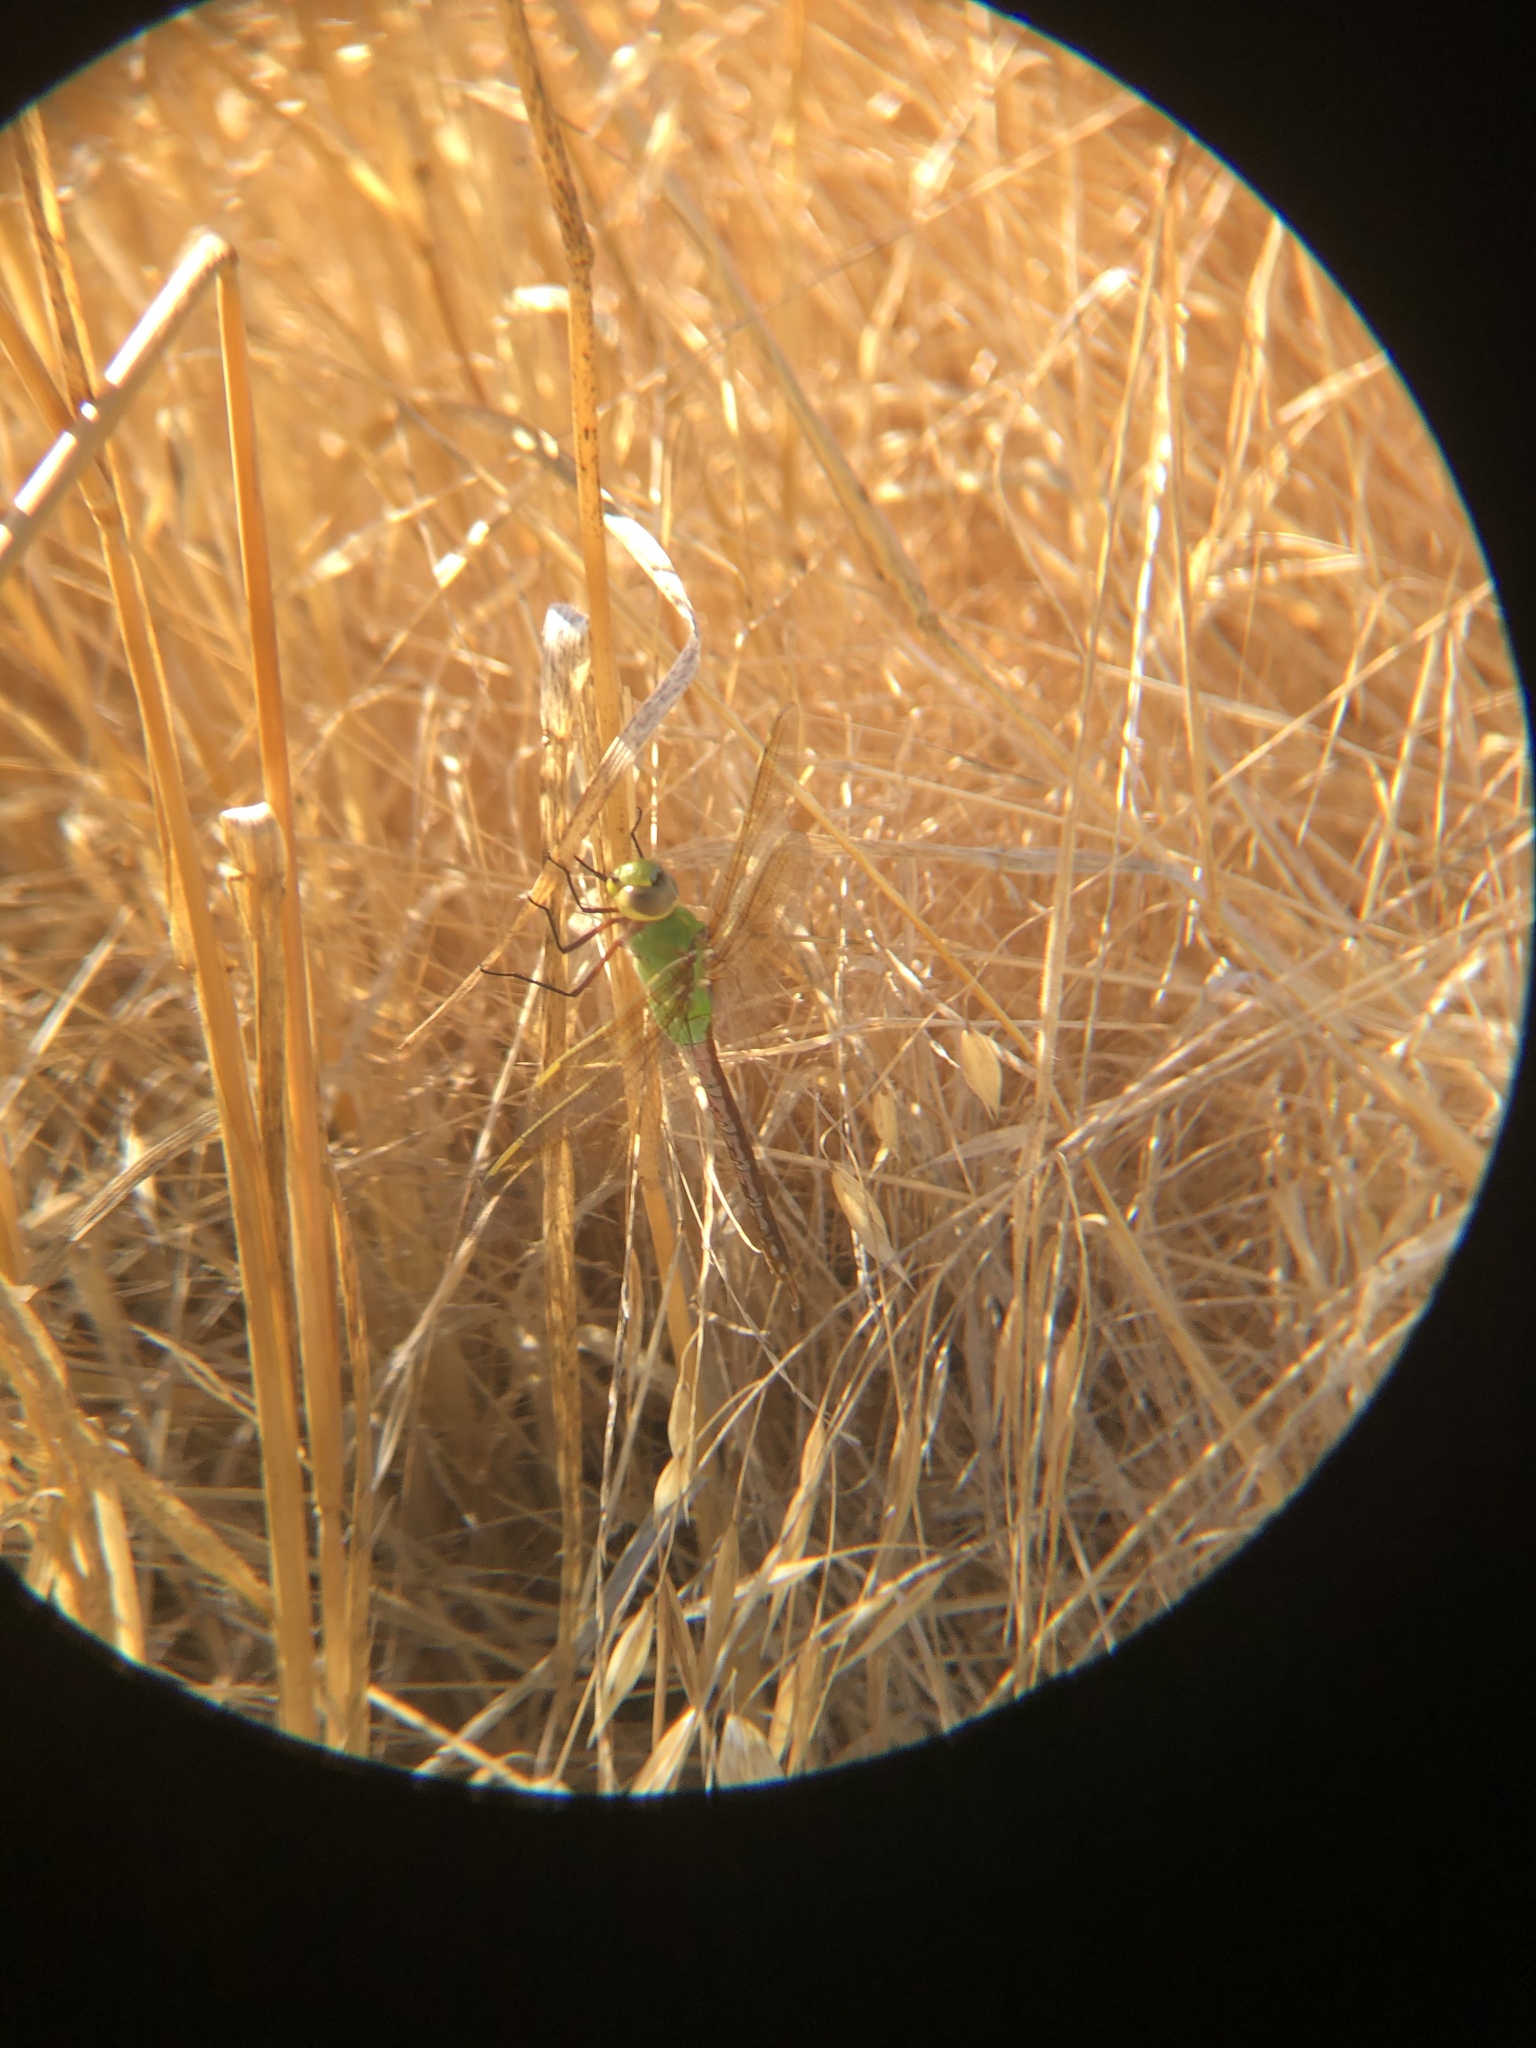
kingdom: Animalia
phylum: Arthropoda
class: Insecta
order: Odonata
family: Aeshnidae
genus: Anax
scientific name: Anax junius
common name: Common green darner
